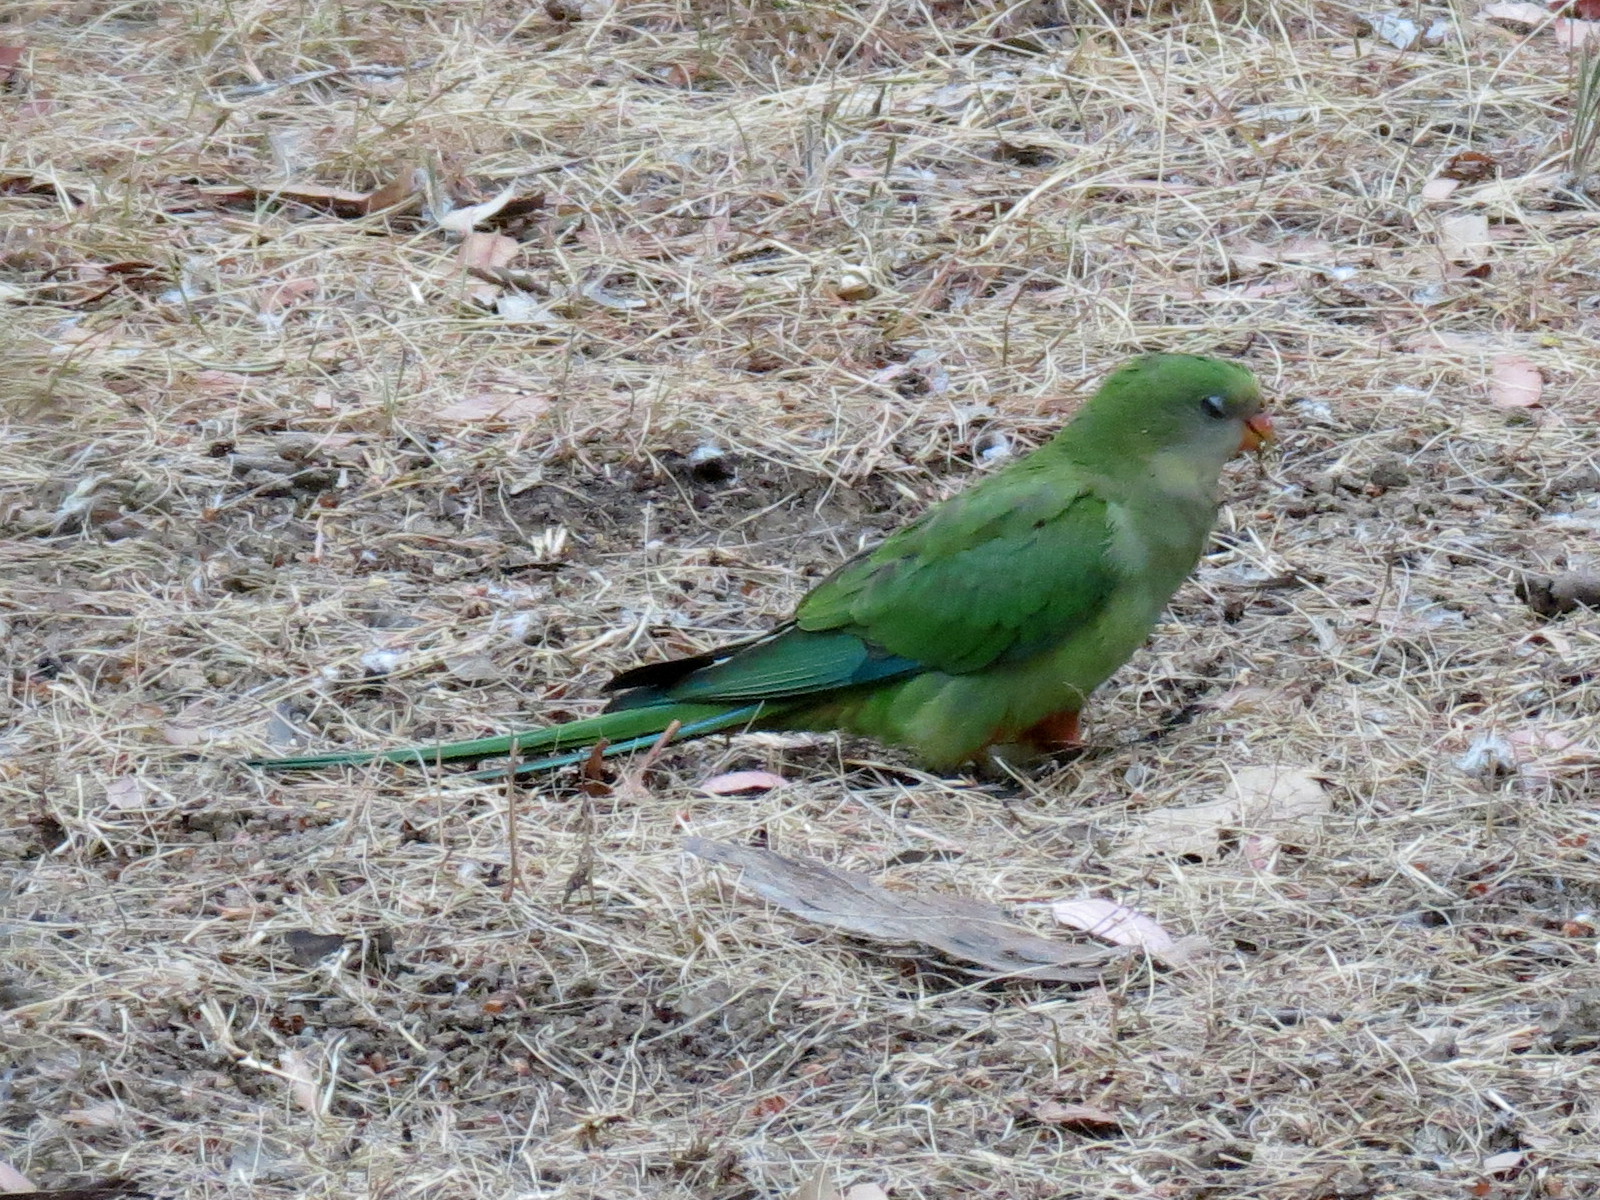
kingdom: Animalia
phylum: Chordata
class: Aves
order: Psittaciformes
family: Psittacidae
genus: Polytelis
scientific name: Polytelis swainsonii
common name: Superb parrot
